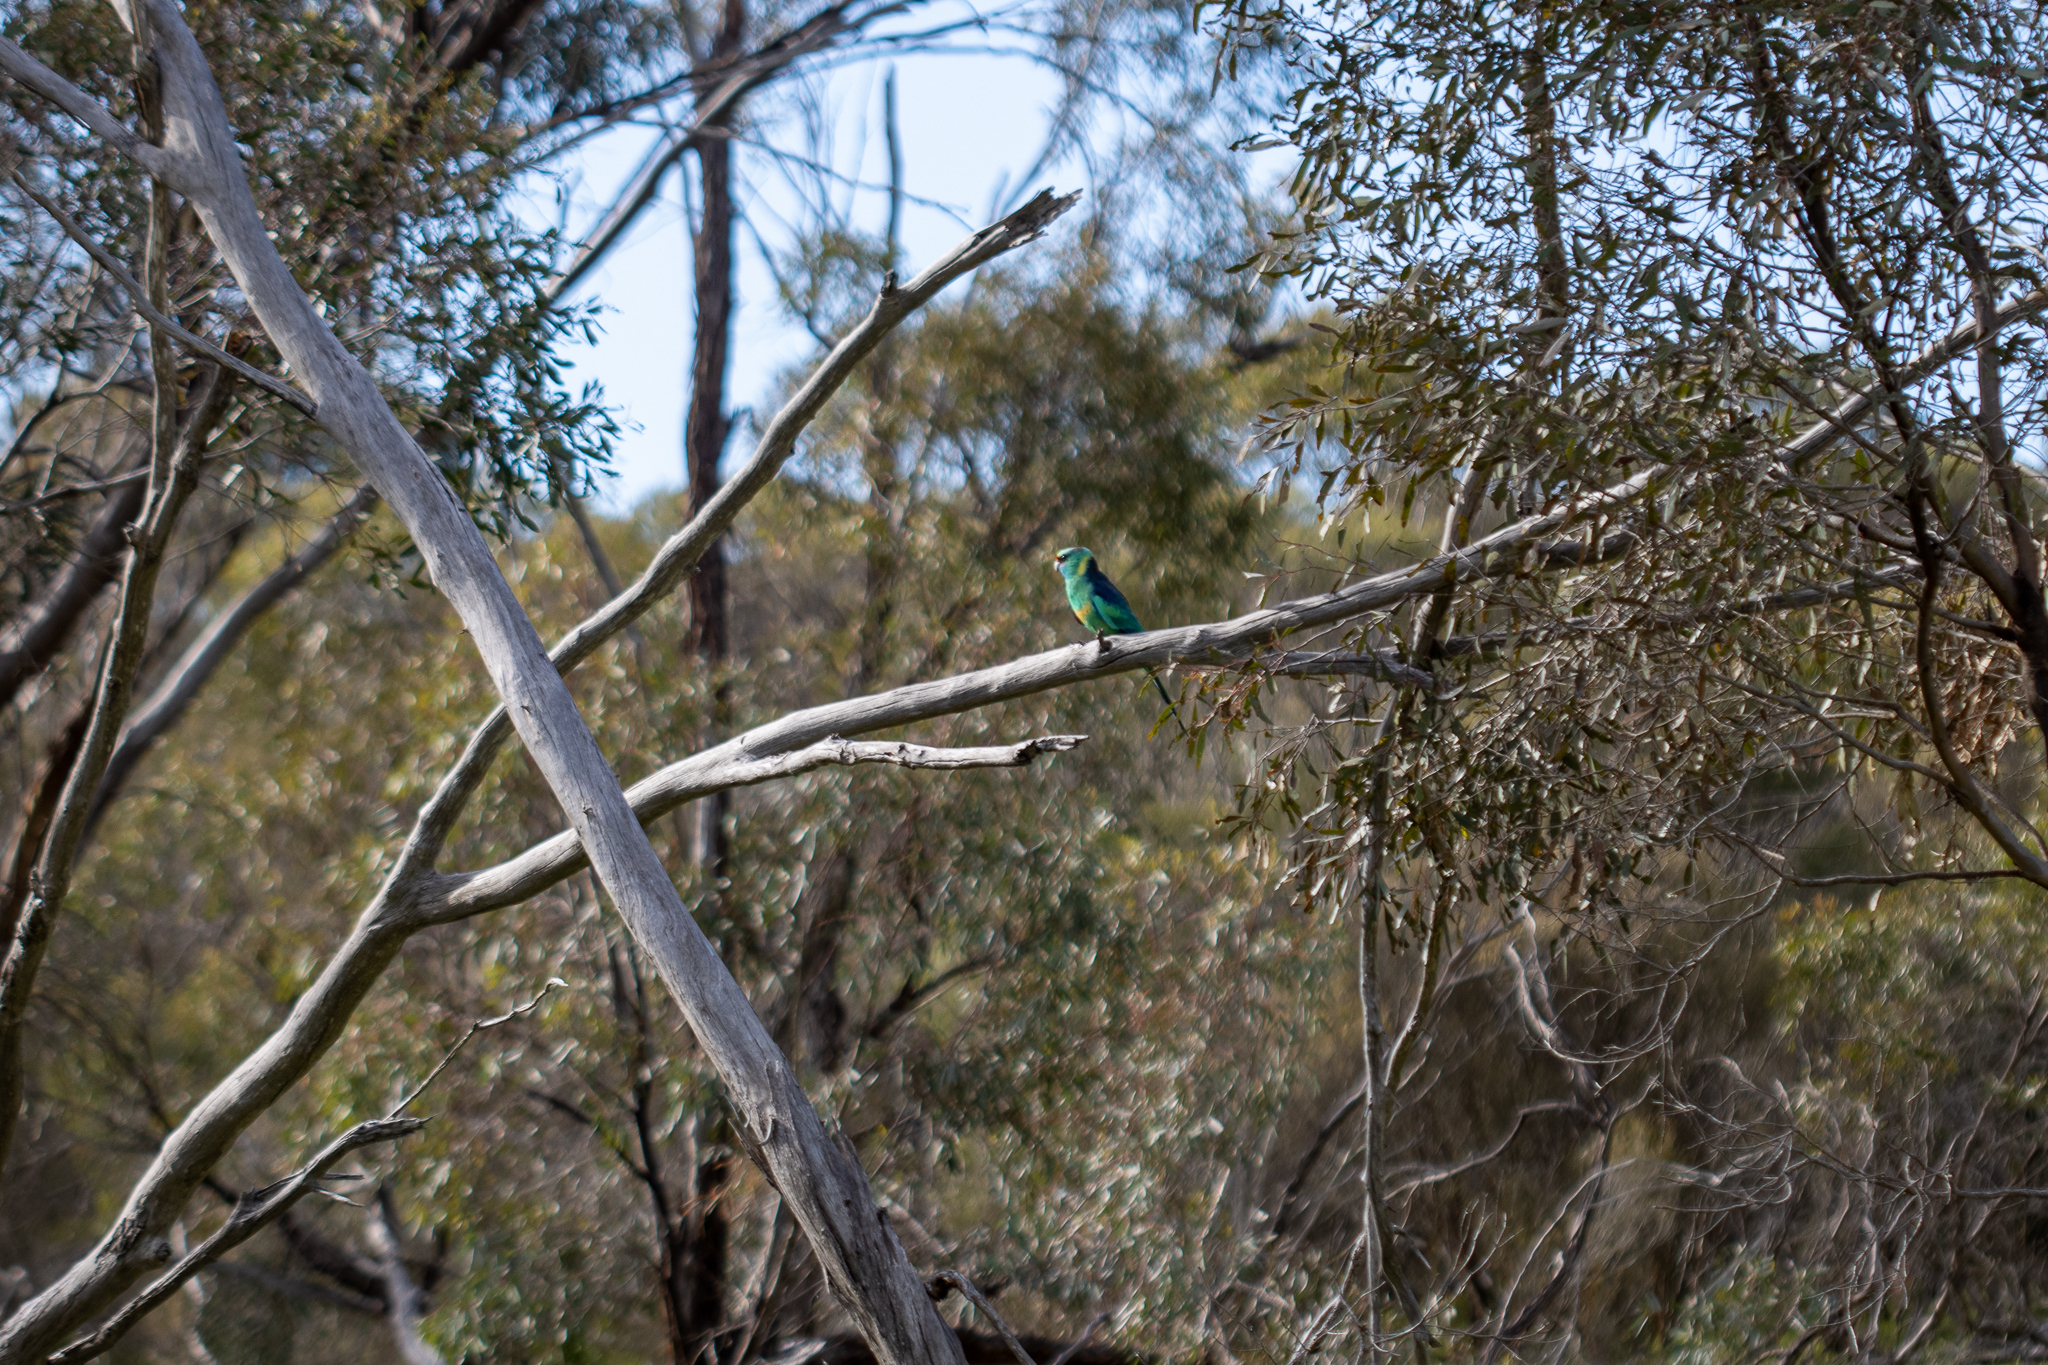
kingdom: Animalia
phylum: Chordata
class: Aves
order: Psittaciformes
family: Psittacidae
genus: Barnardius
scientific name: Barnardius zonarius
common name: Australian ringneck
